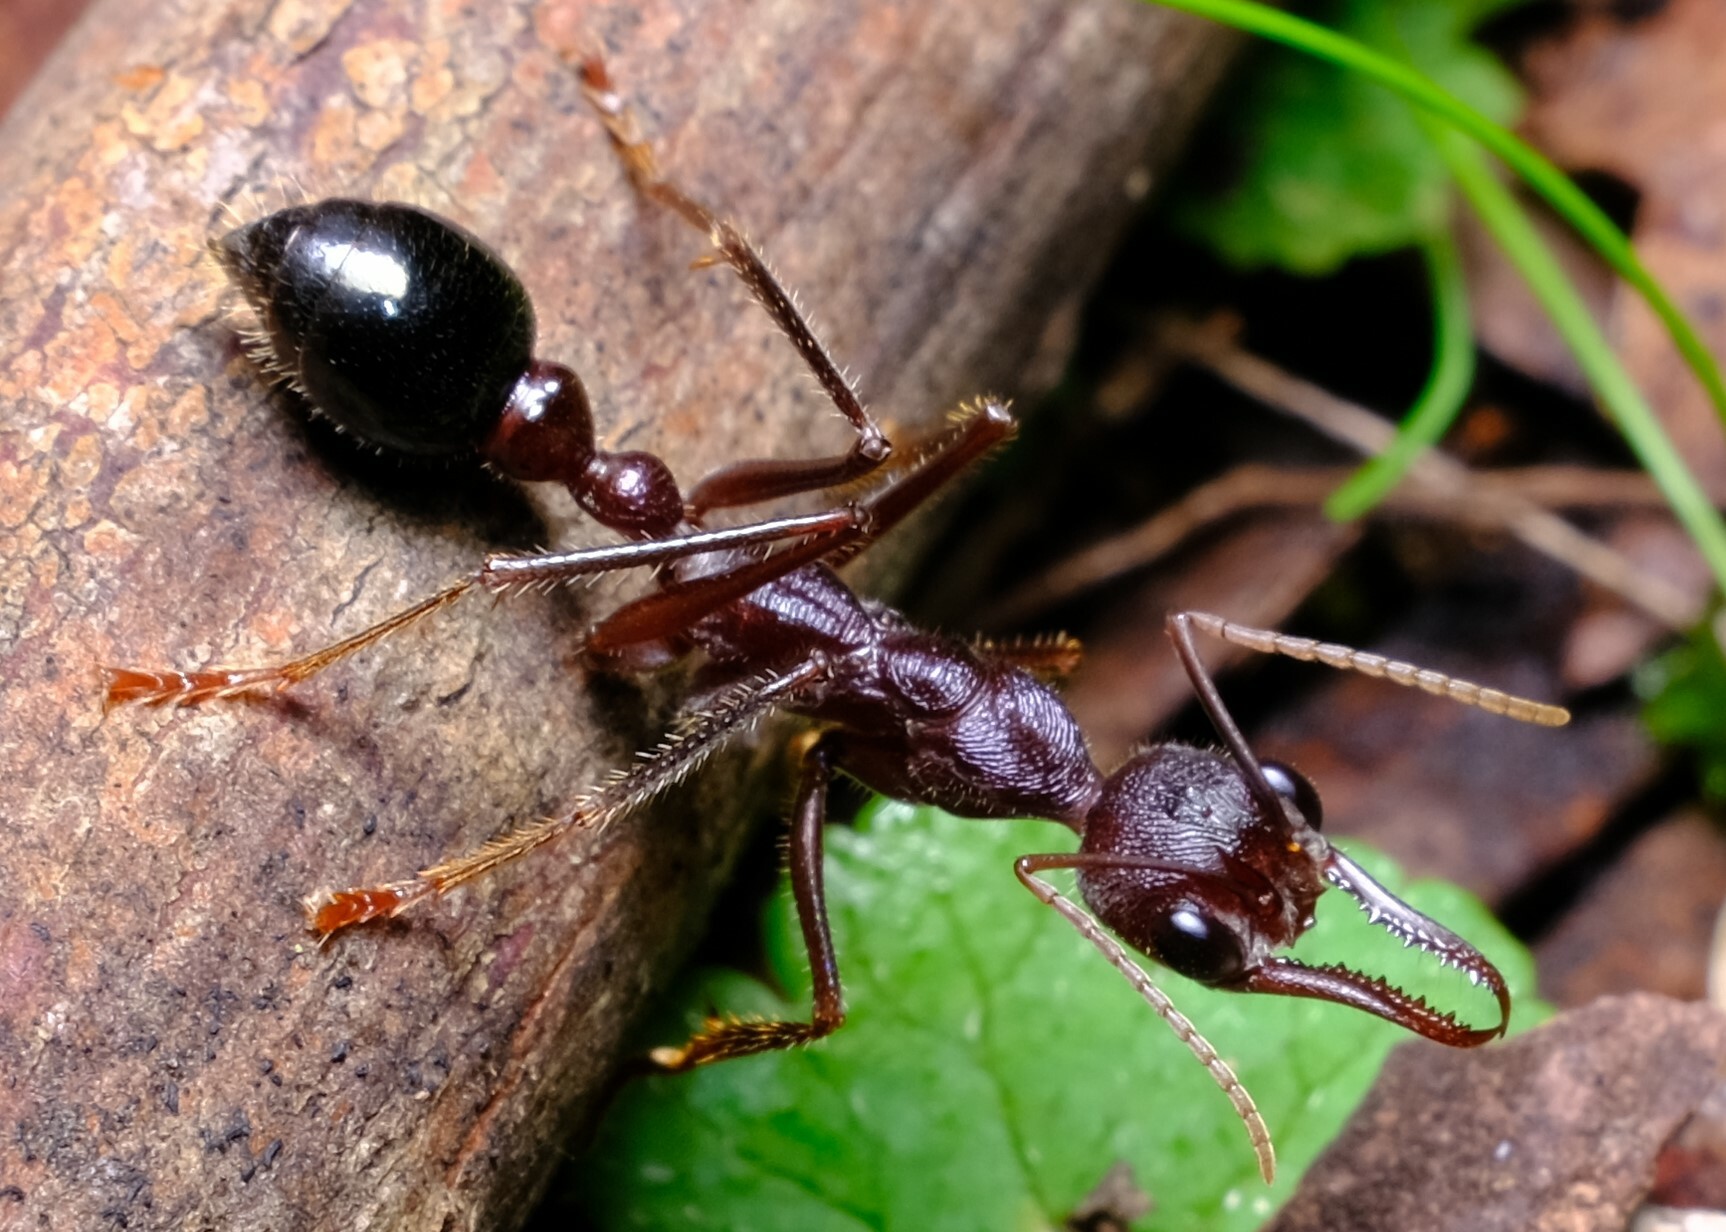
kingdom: Animalia
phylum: Arthropoda
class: Insecta
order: Hymenoptera
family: Formicidae
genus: Myrmecia
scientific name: Myrmecia forficata
